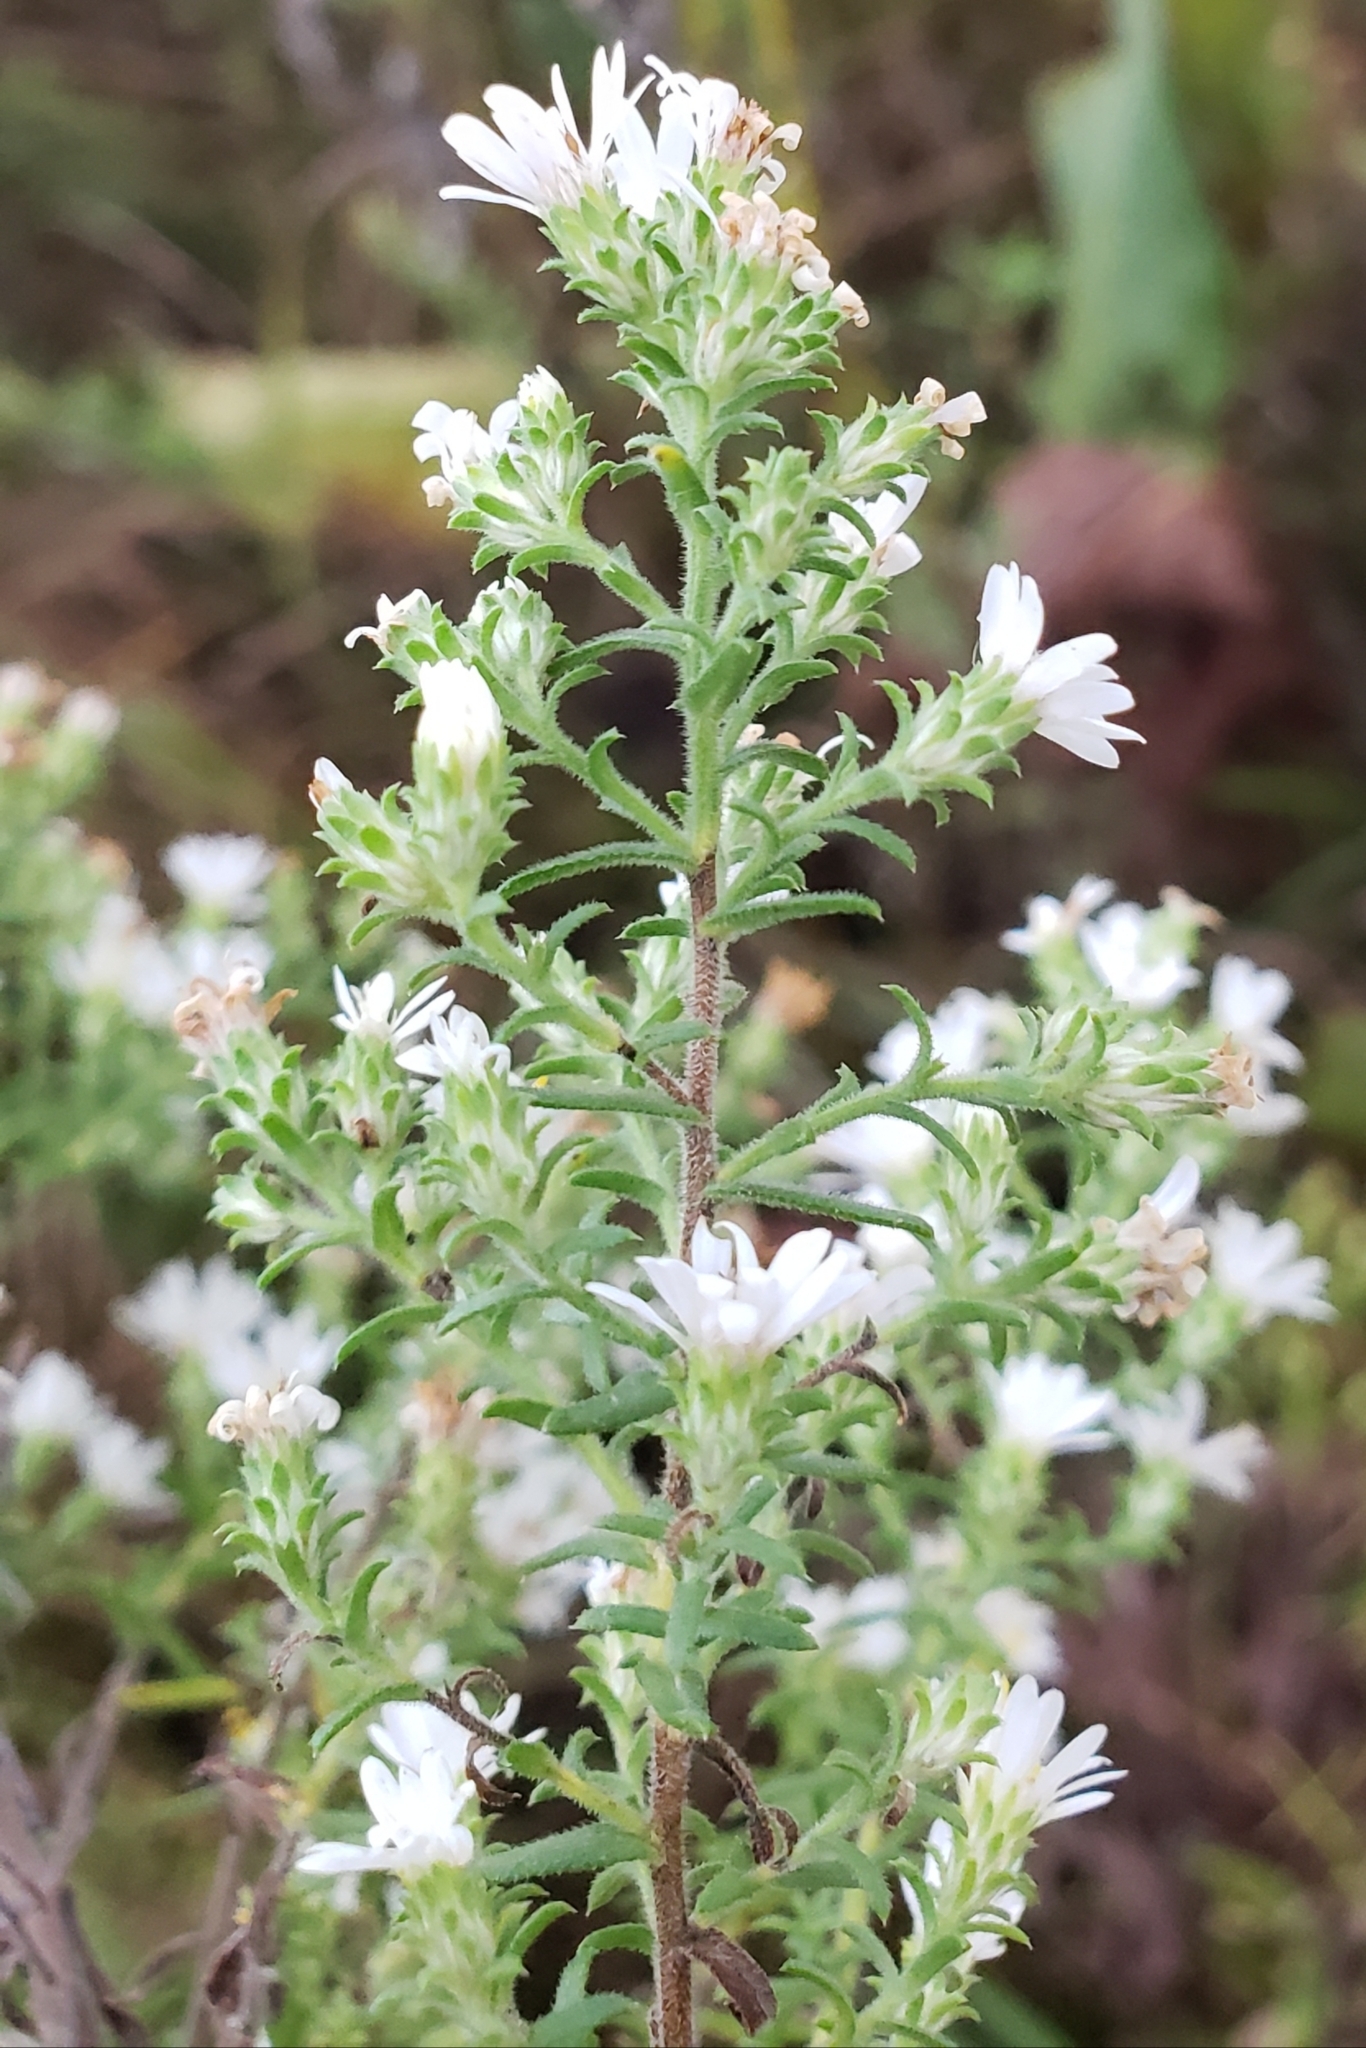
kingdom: Plantae
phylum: Tracheophyta
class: Magnoliopsida
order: Asterales
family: Asteraceae
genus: Symphyotrichum
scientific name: Symphyotrichum ericoides
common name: Heath aster
